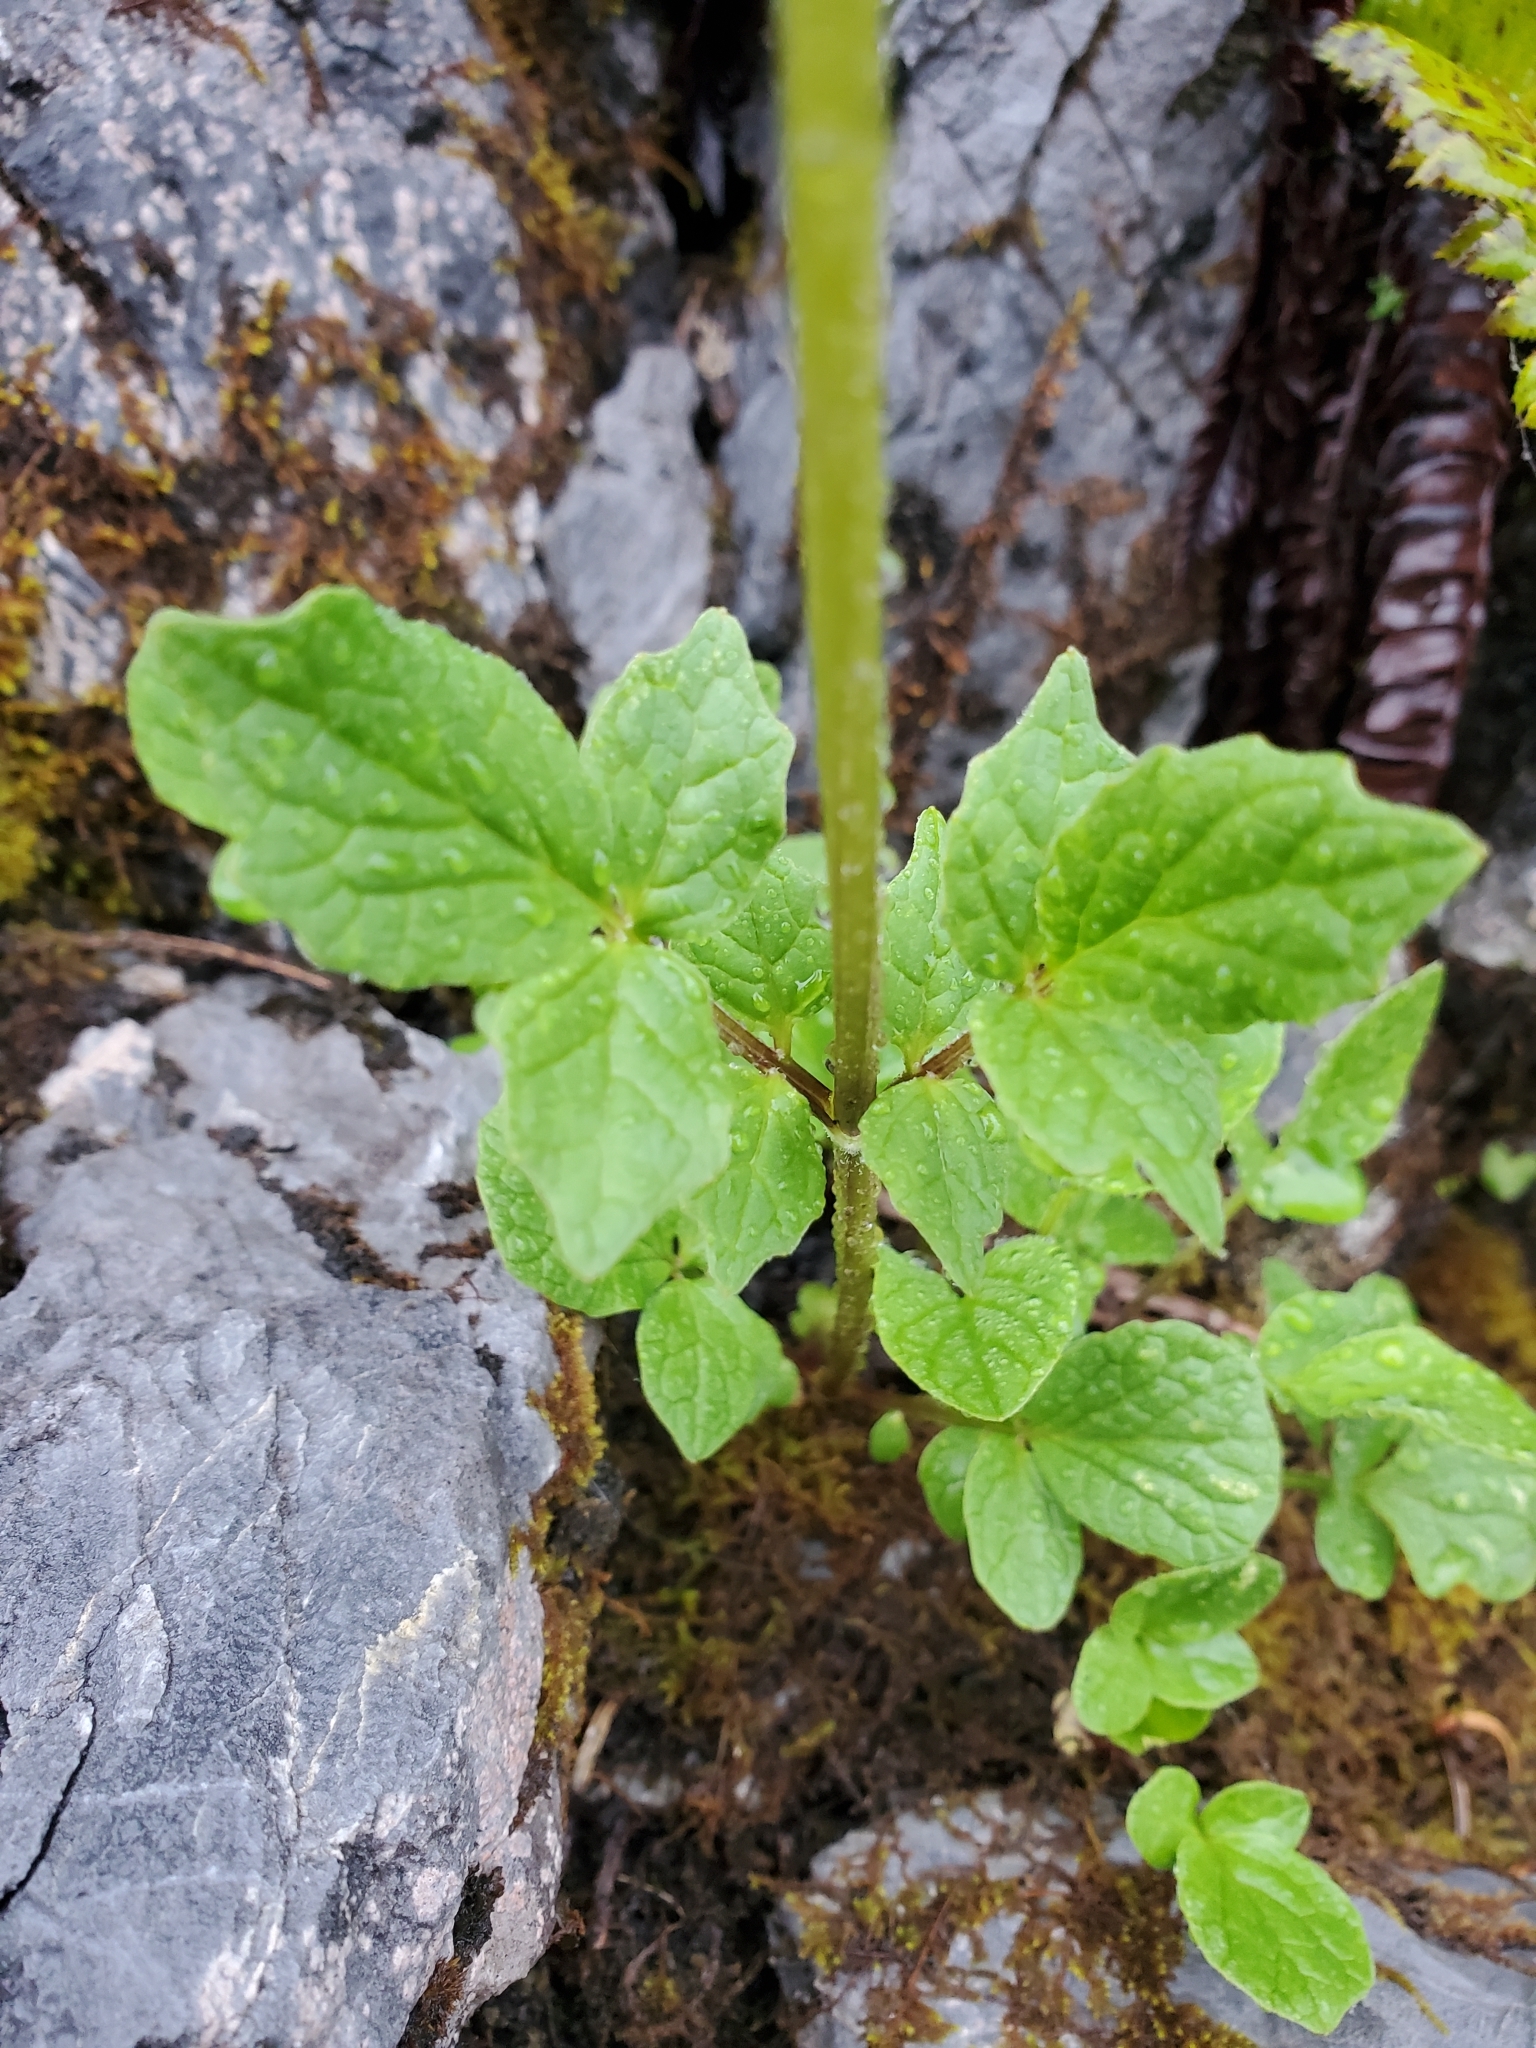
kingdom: Plantae
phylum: Tracheophyta
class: Magnoliopsida
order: Dipsacales
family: Caprifoliaceae
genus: Valeriana
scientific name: Valeriana sitchensis
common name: Pacific valerian
